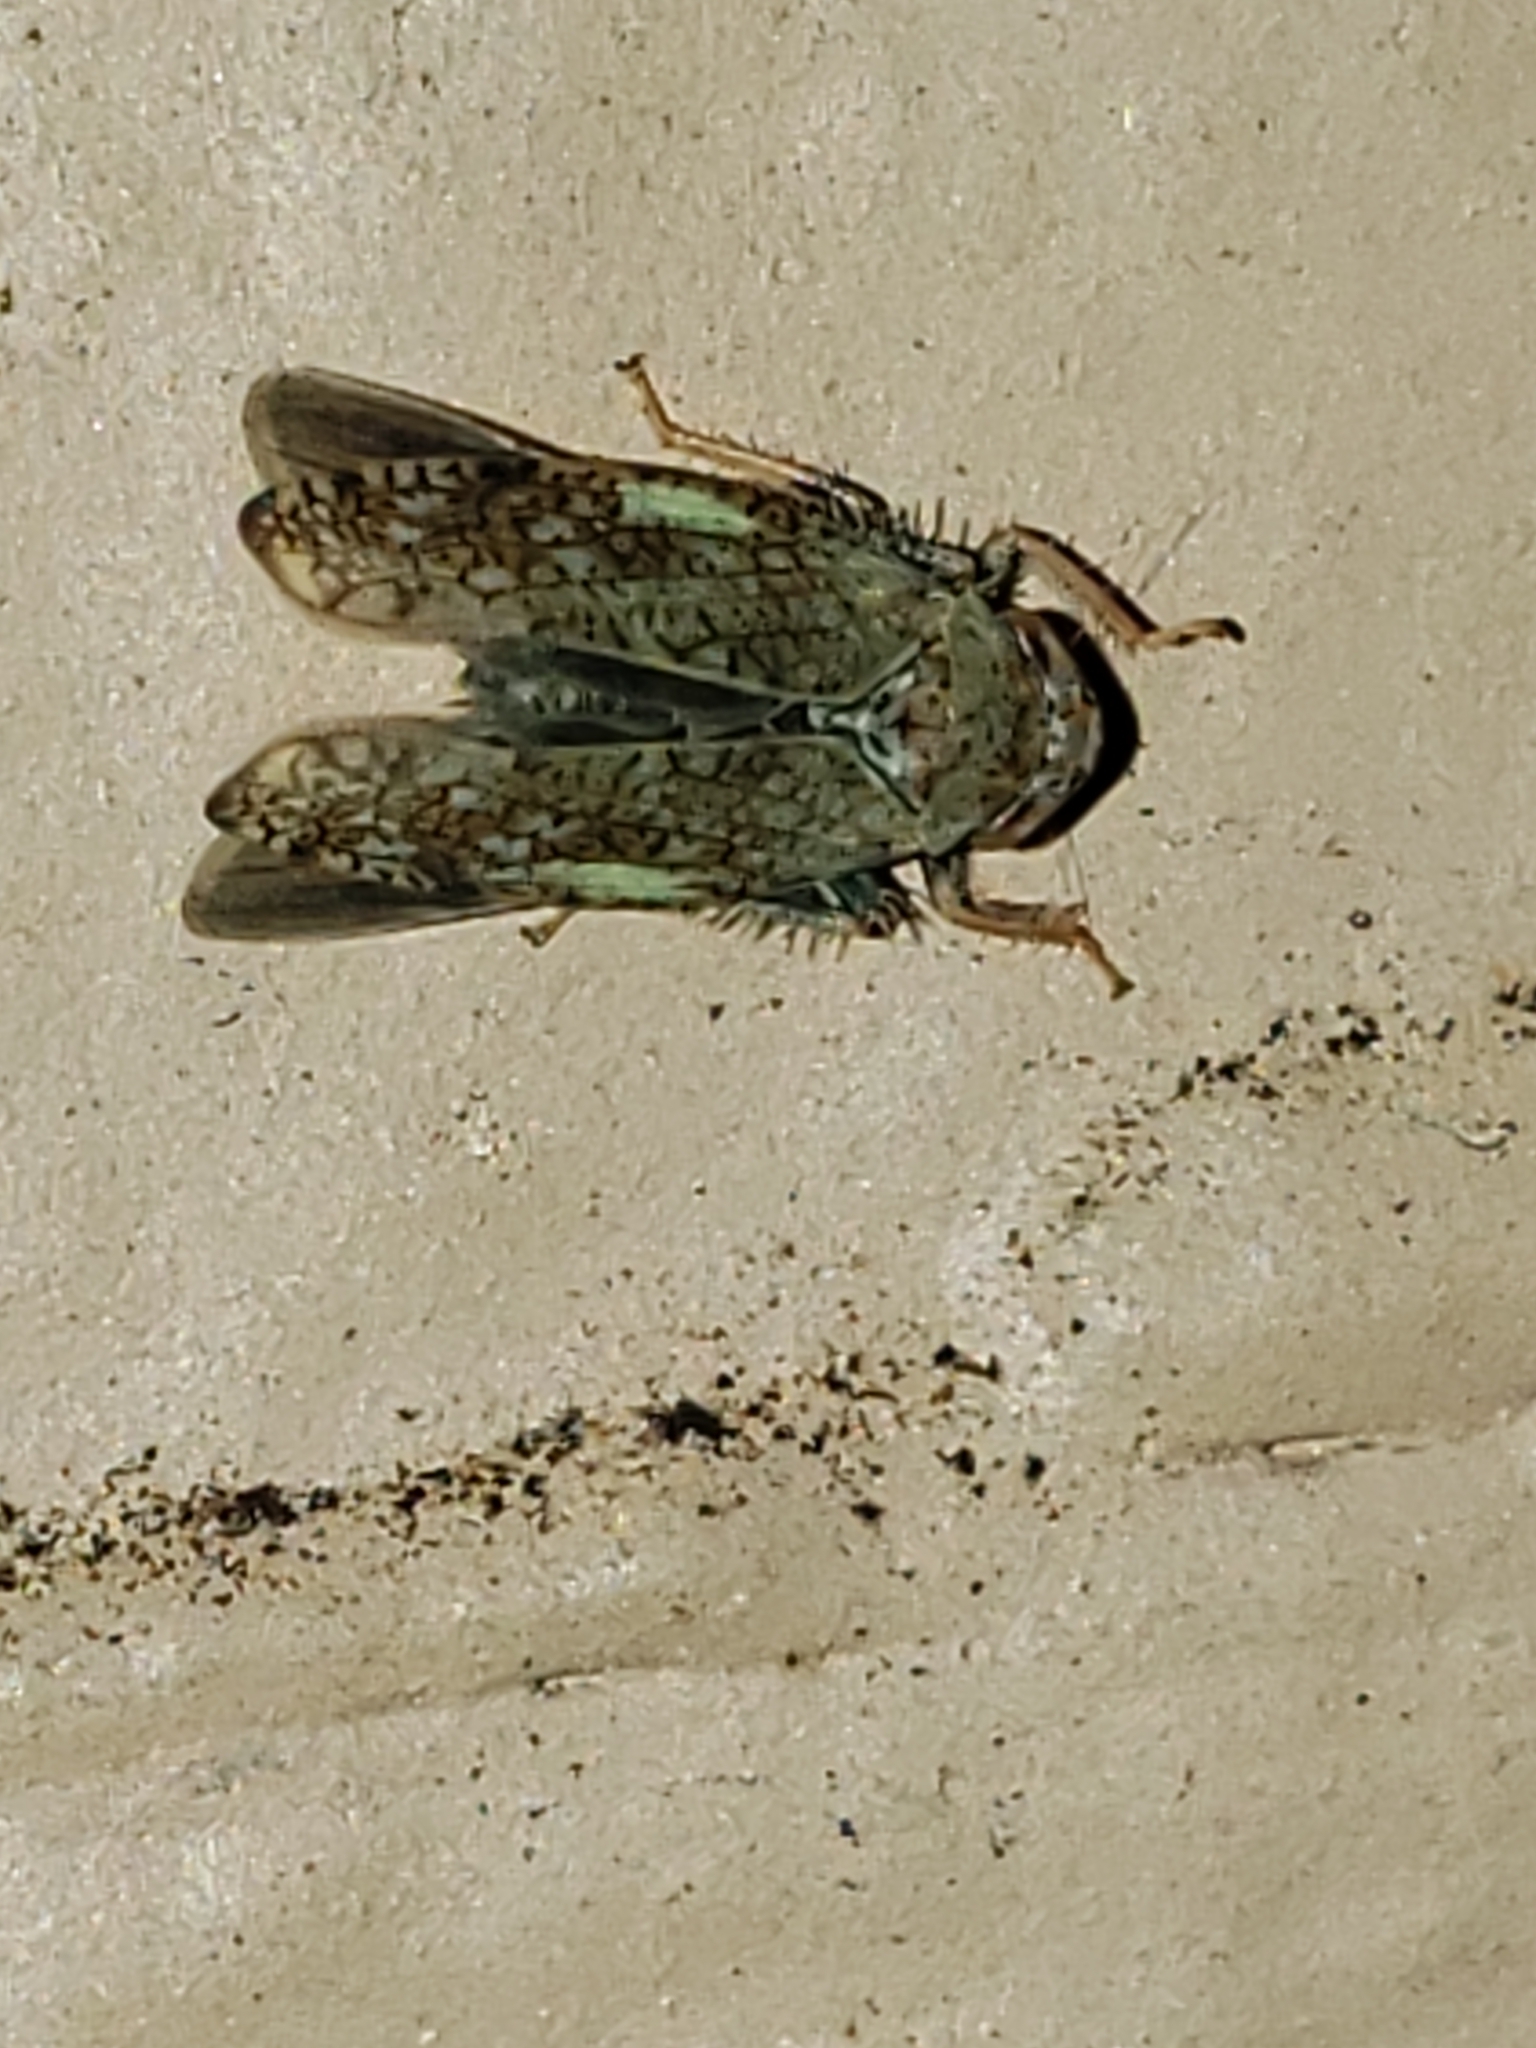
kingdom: Animalia
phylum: Arthropoda
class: Insecta
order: Hemiptera
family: Cicadellidae
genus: Orientus
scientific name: Orientus ishidae
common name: Japanese leafhopper
